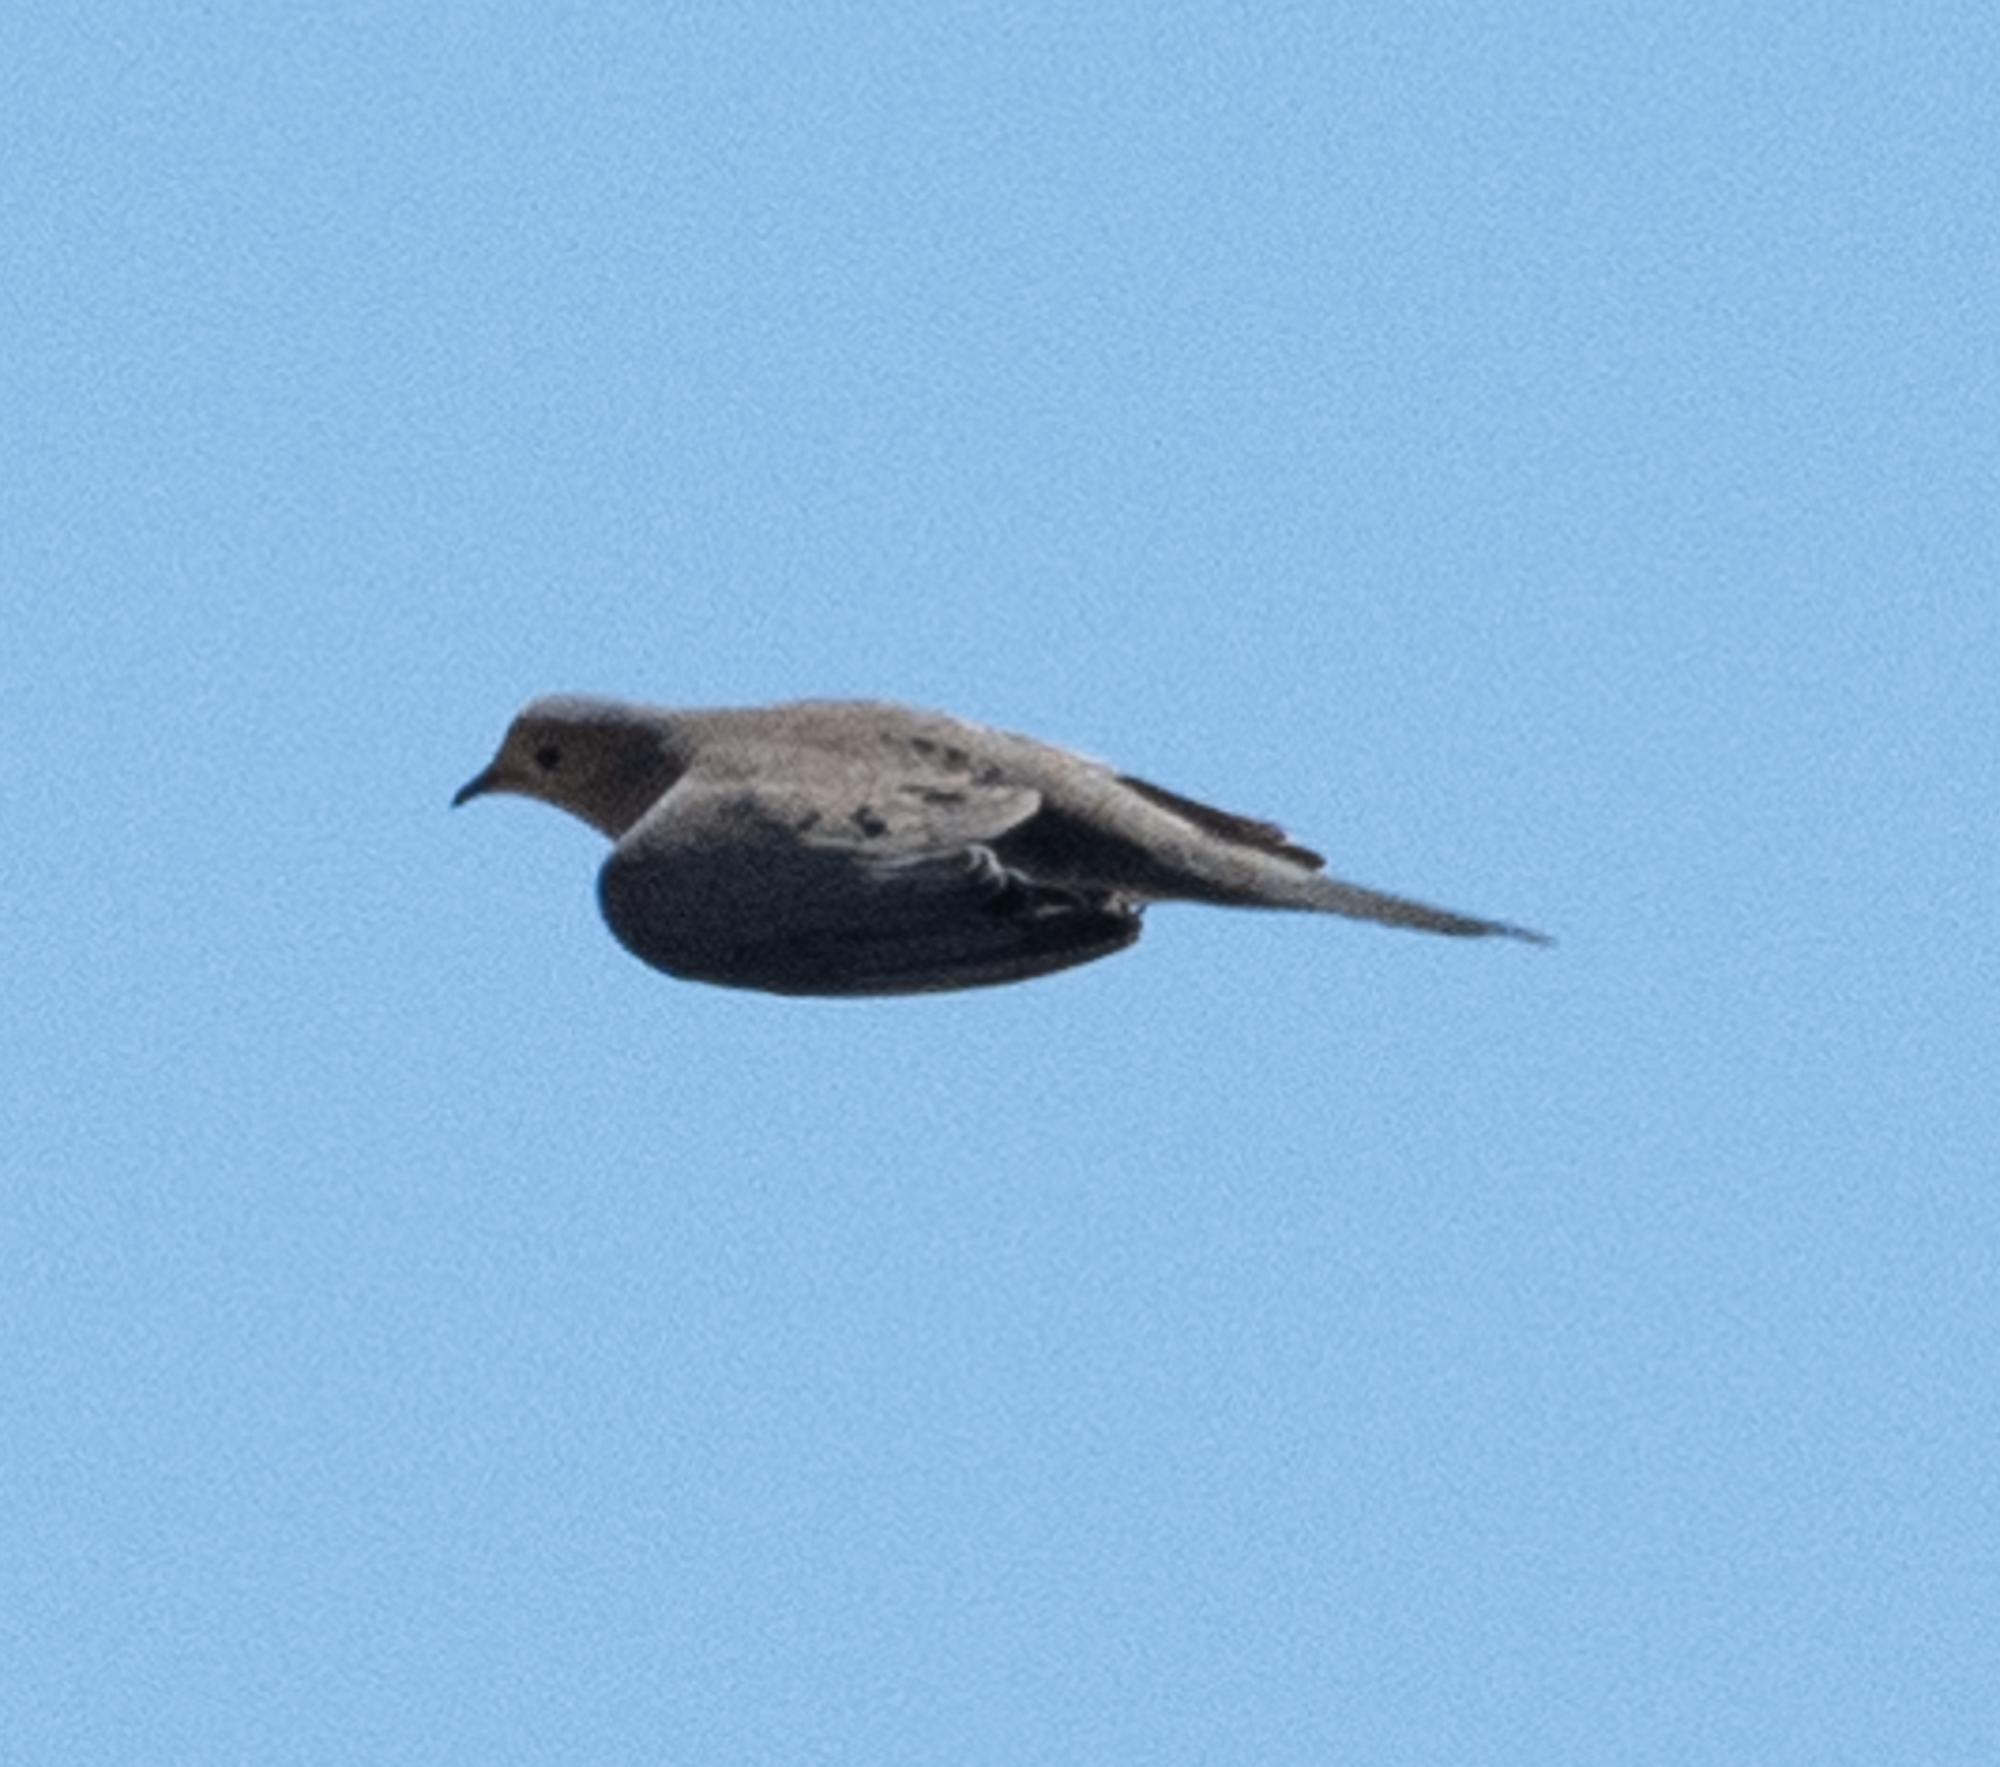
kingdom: Animalia
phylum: Chordata
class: Aves
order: Columbiformes
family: Columbidae
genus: Zenaida
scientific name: Zenaida macroura
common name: Mourning dove
